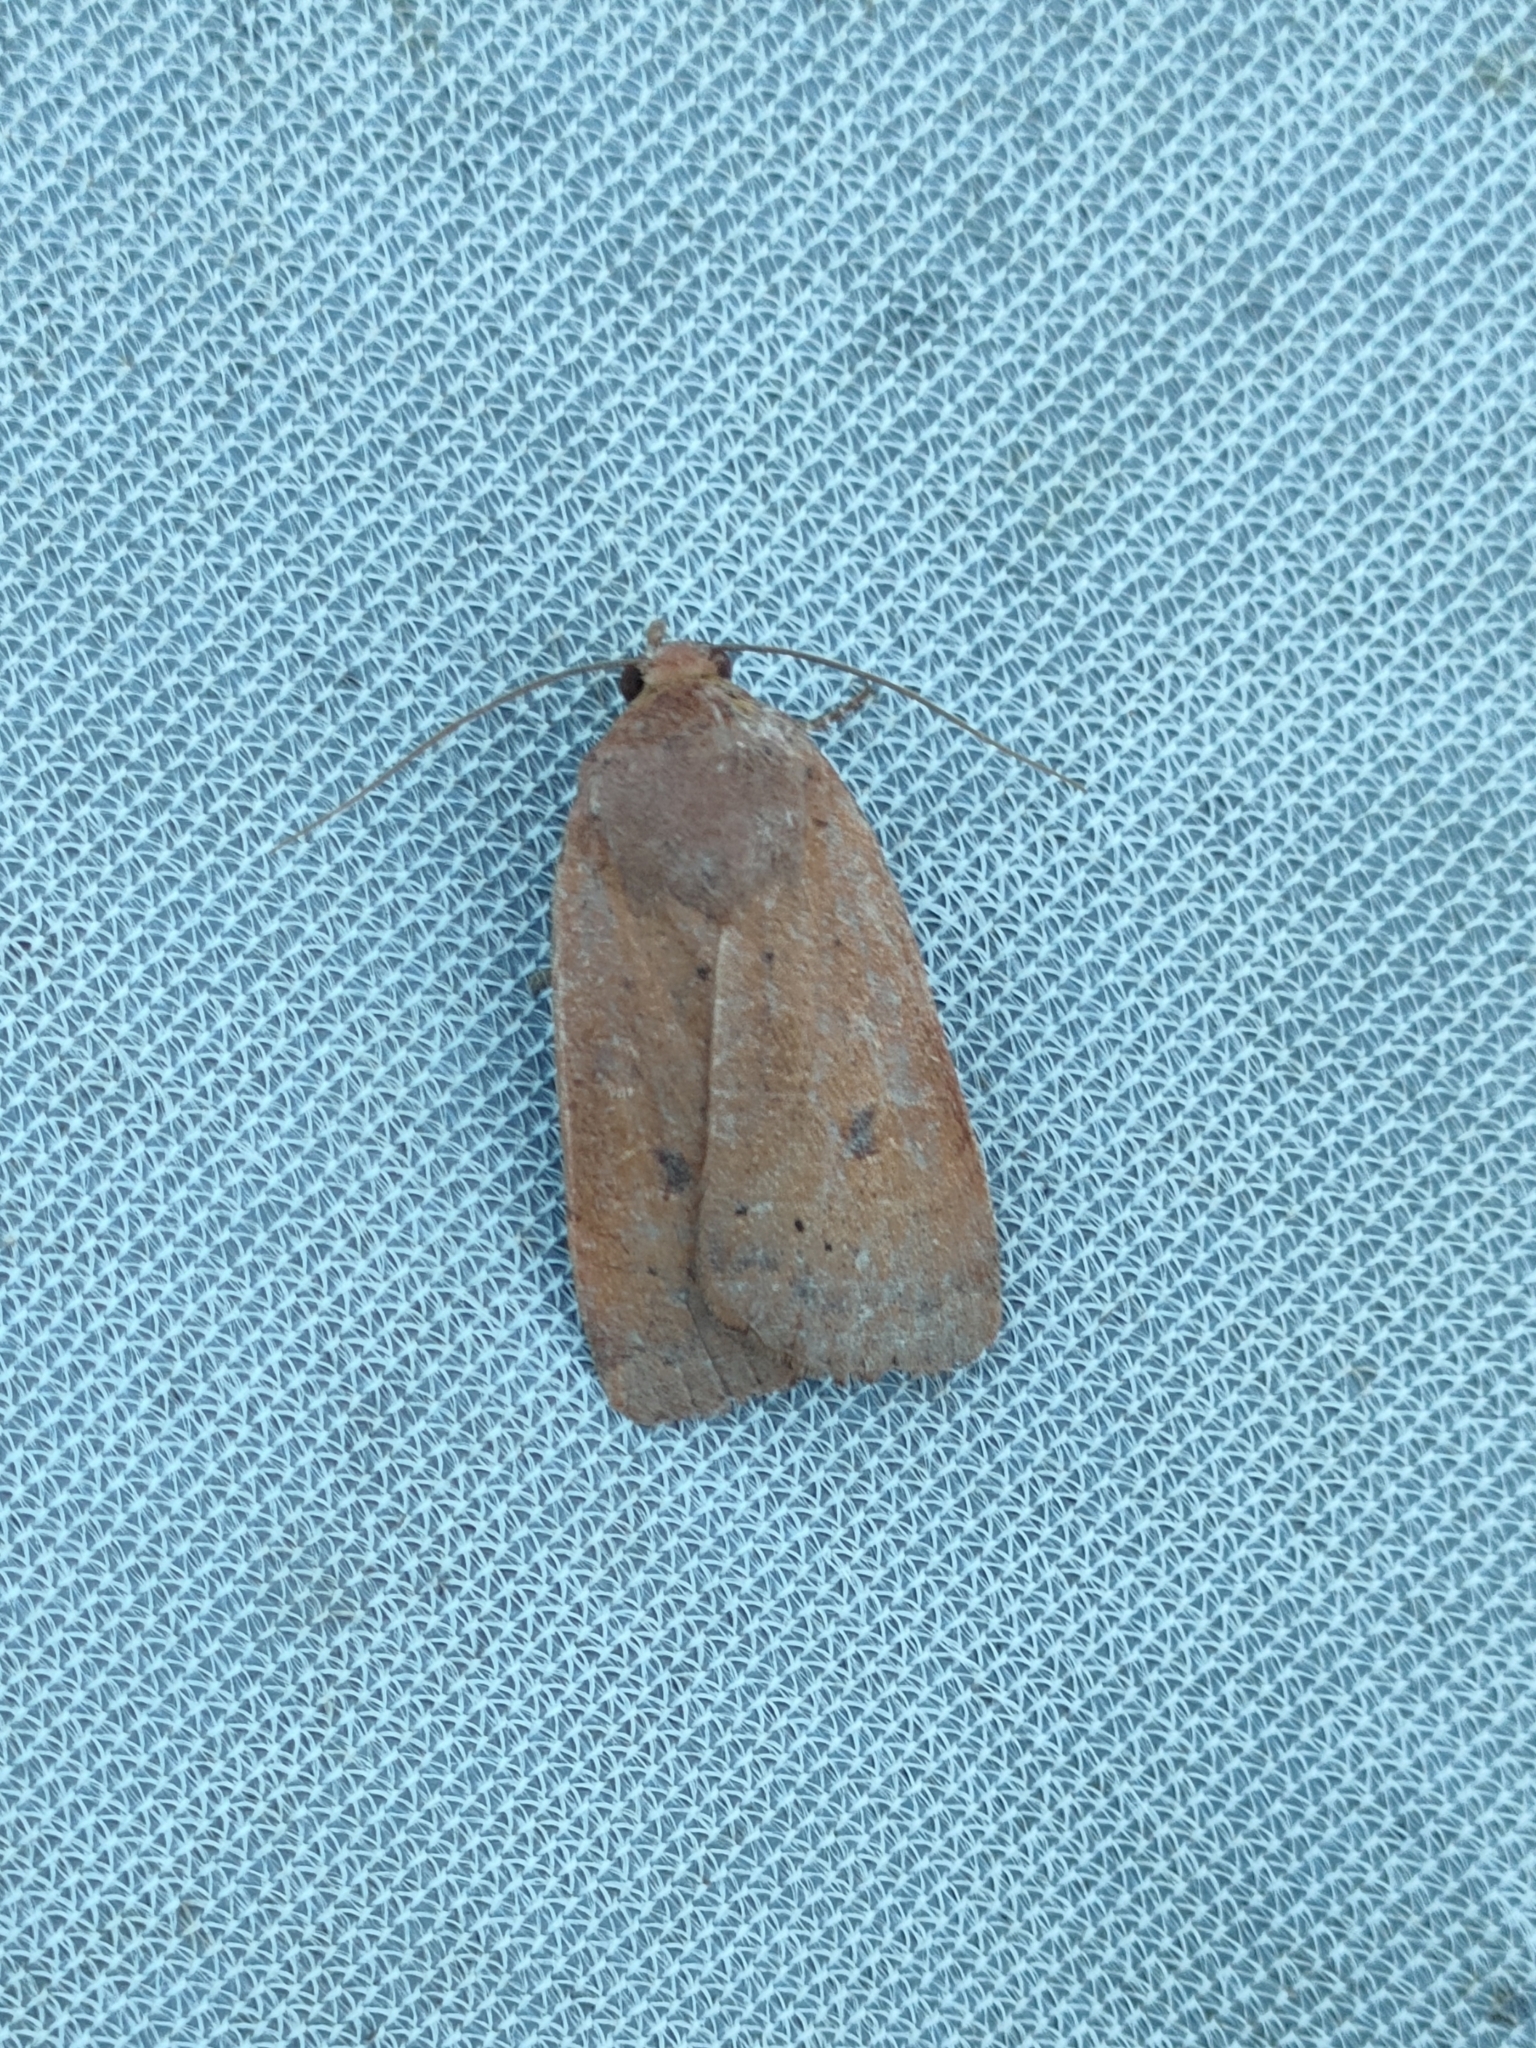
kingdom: Animalia
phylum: Arthropoda
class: Insecta
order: Lepidoptera
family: Noctuidae
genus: Noctua
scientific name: Noctua comes
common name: Lesser yellow underwing
